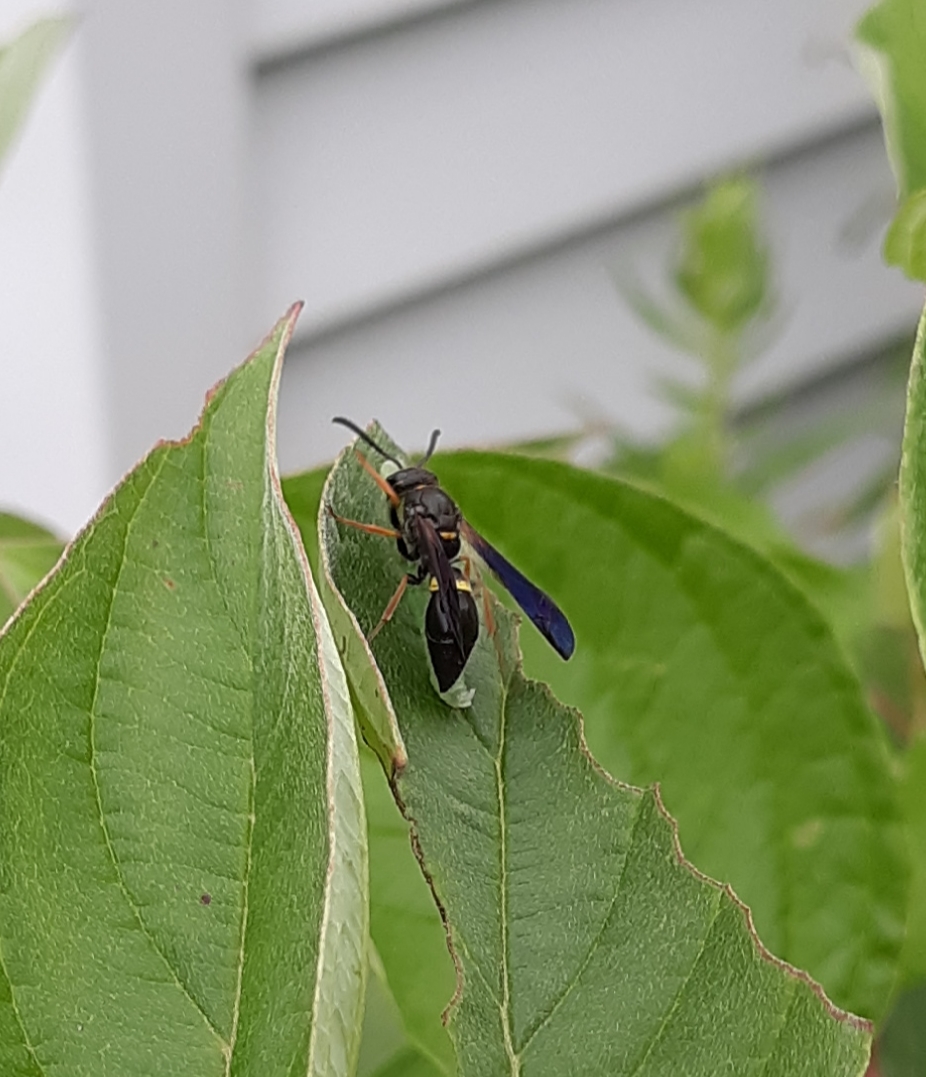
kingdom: Animalia
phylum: Arthropoda
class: Insecta
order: Hymenoptera
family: Vespidae
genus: Ancistrocerus
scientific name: Ancistrocerus unifasciatus
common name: One-banded mason wasp
